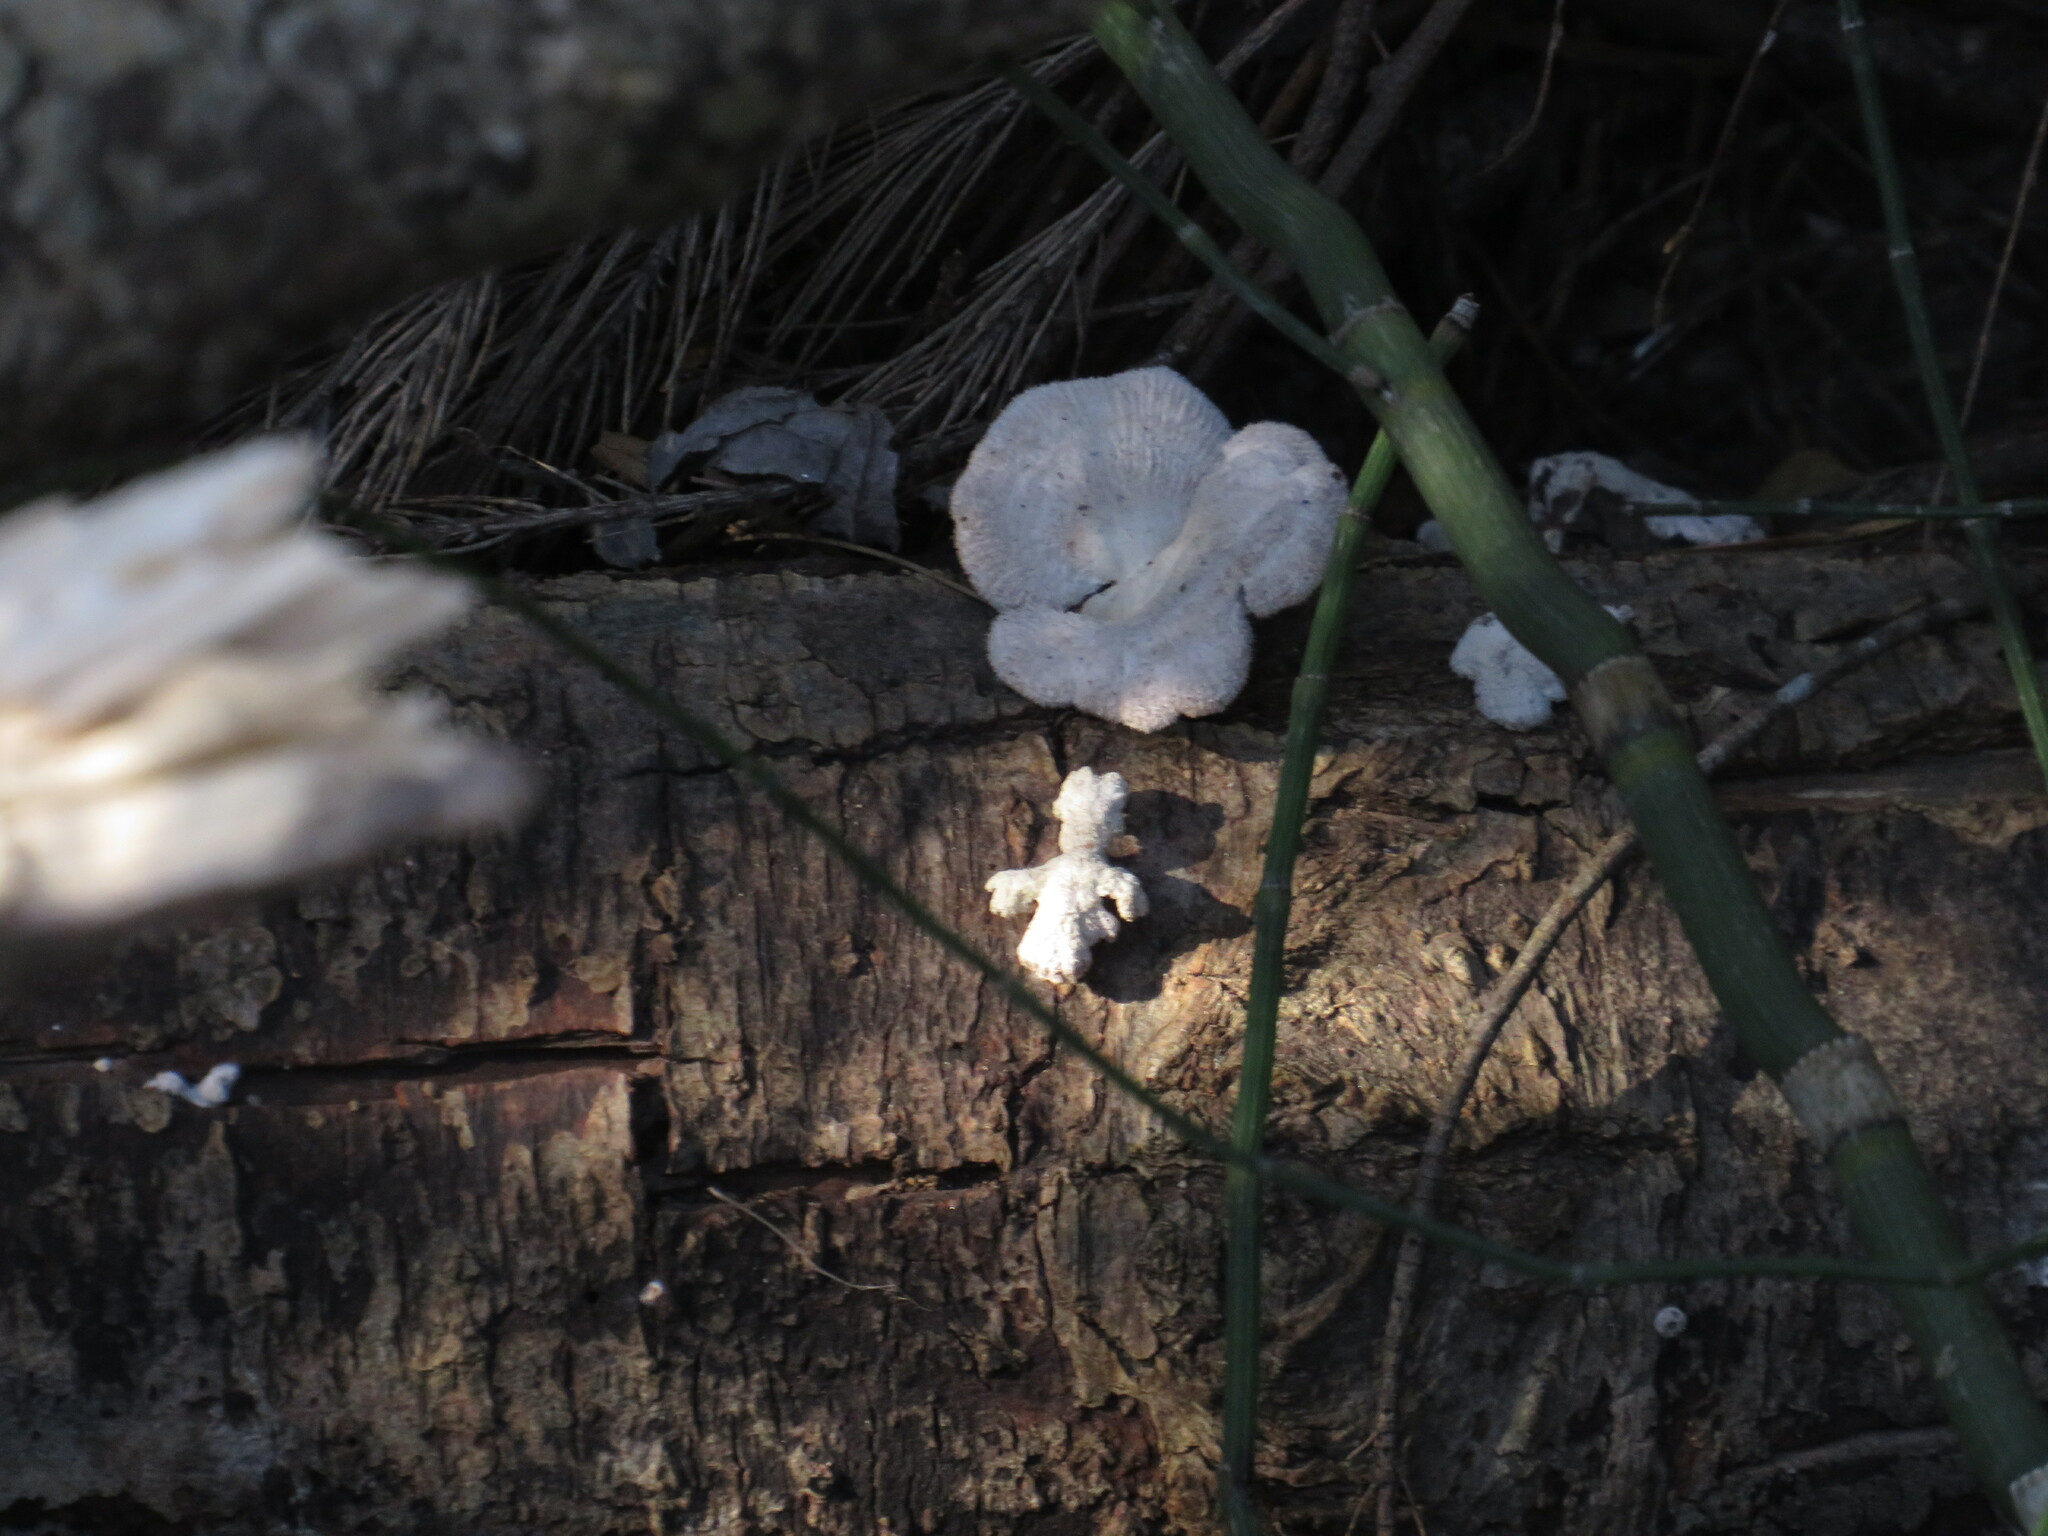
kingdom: Fungi
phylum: Basidiomycota
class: Agaricomycetes
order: Agaricales
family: Schizophyllaceae
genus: Schizophyllum
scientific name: Schizophyllum commune
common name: Common porecrust
